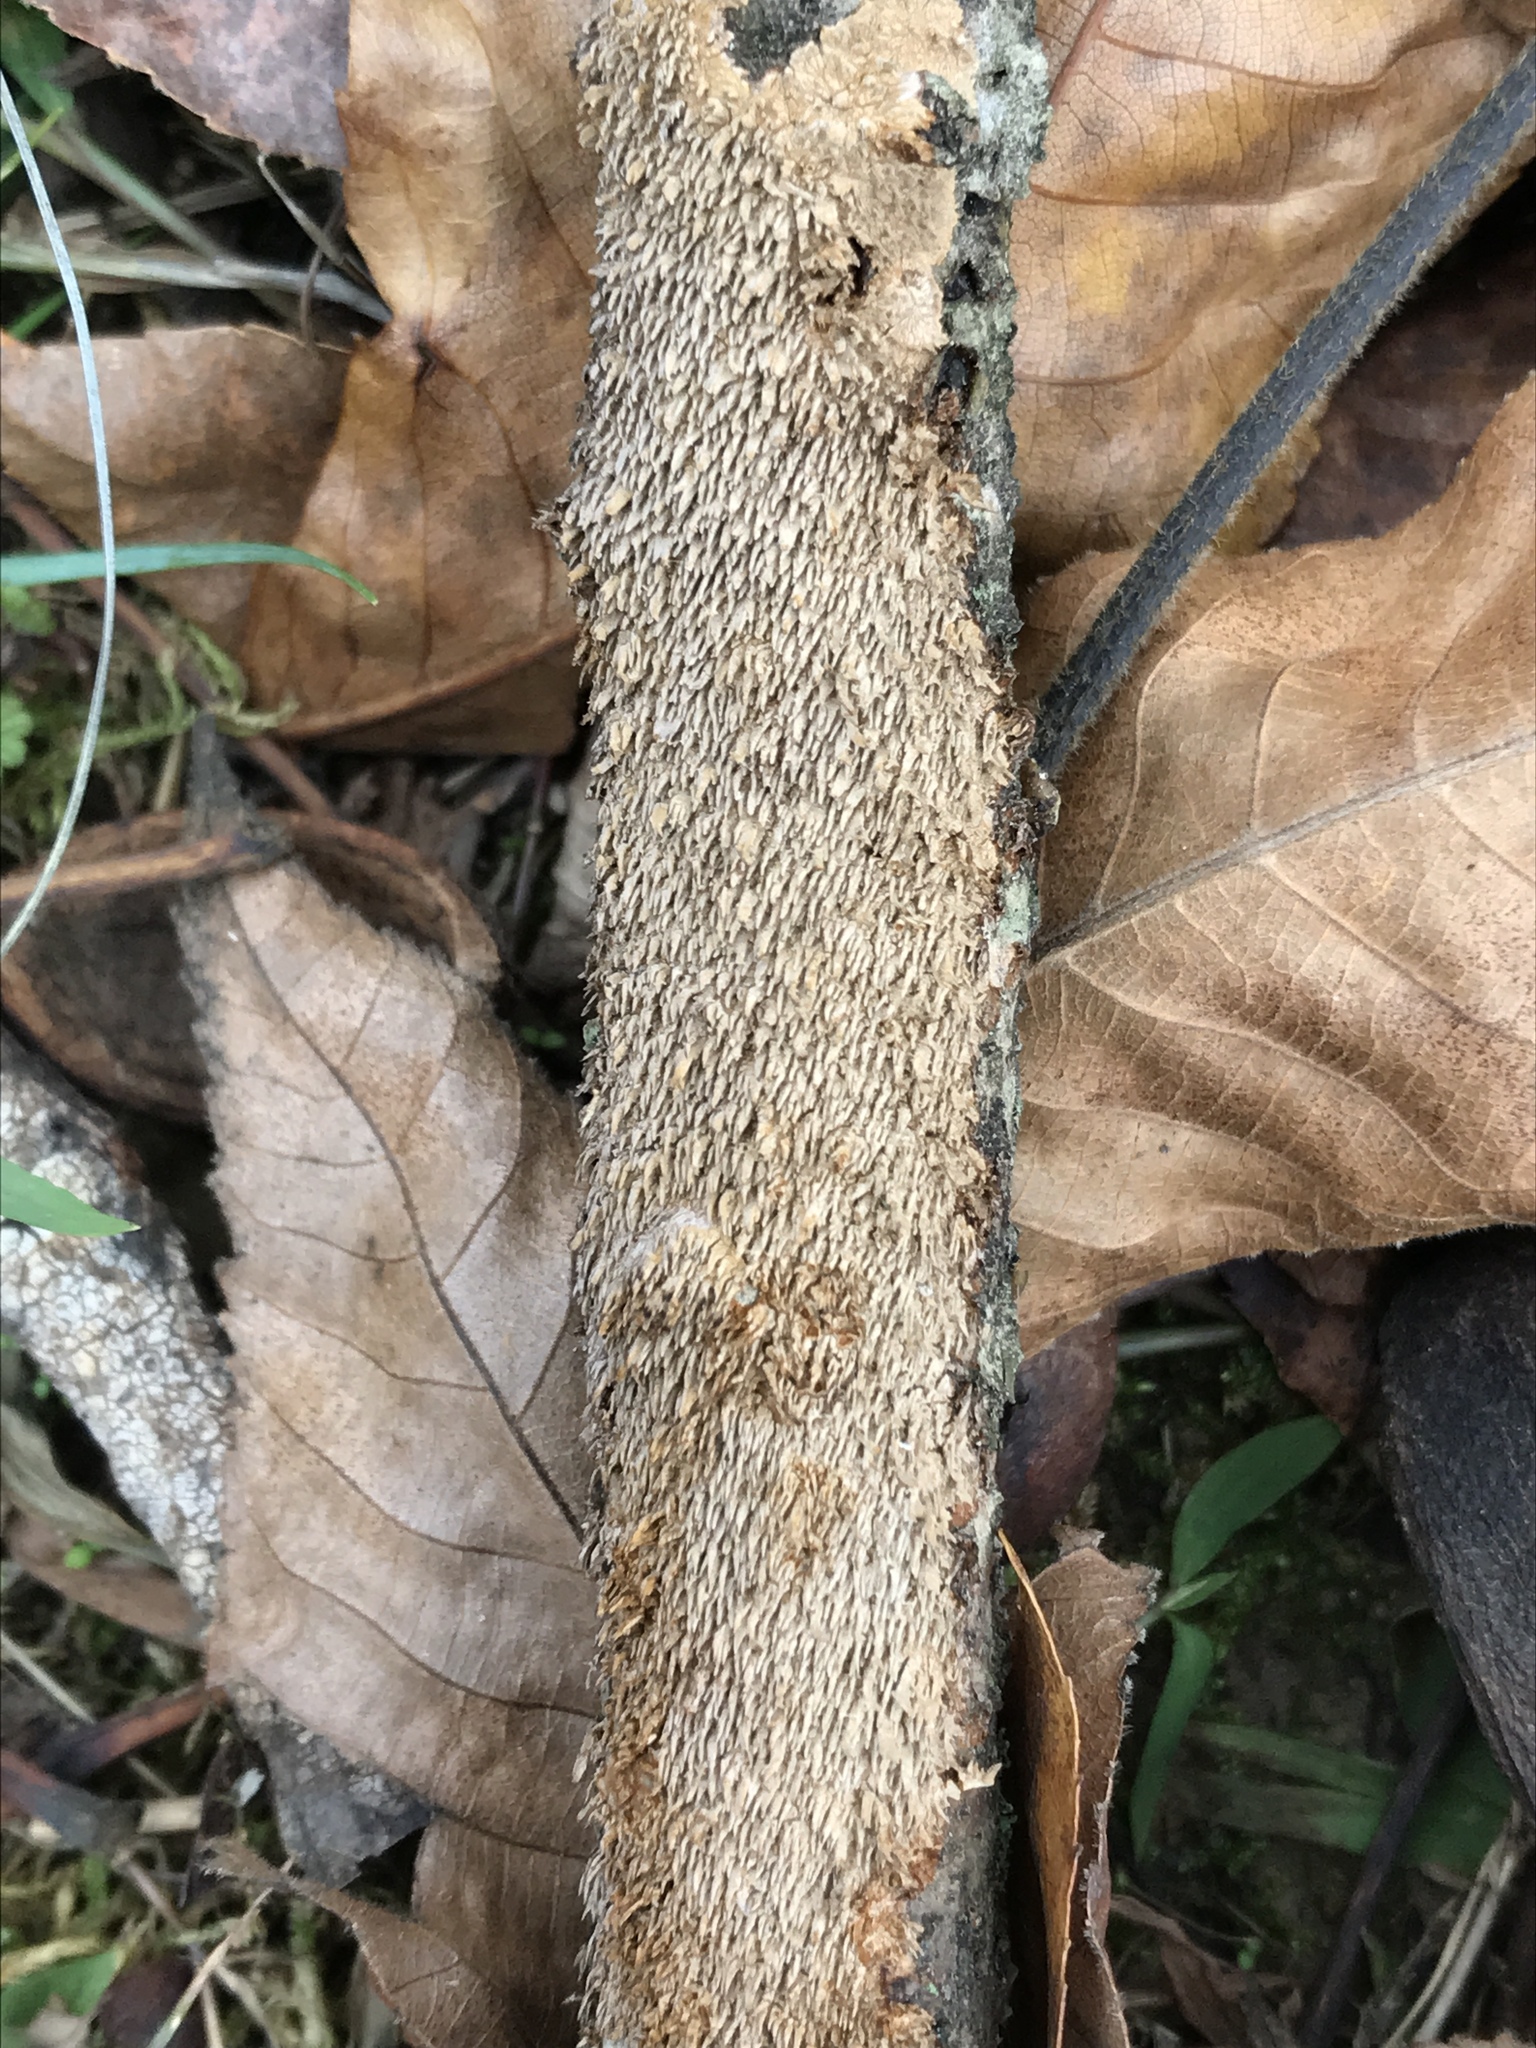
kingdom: Fungi
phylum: Basidiomycota
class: Agaricomycetes
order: Hymenochaetales
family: Hymenochaetaceae
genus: Hydnoporia
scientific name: Hydnoporia olivacea
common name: Brown-toothed crust fungus
